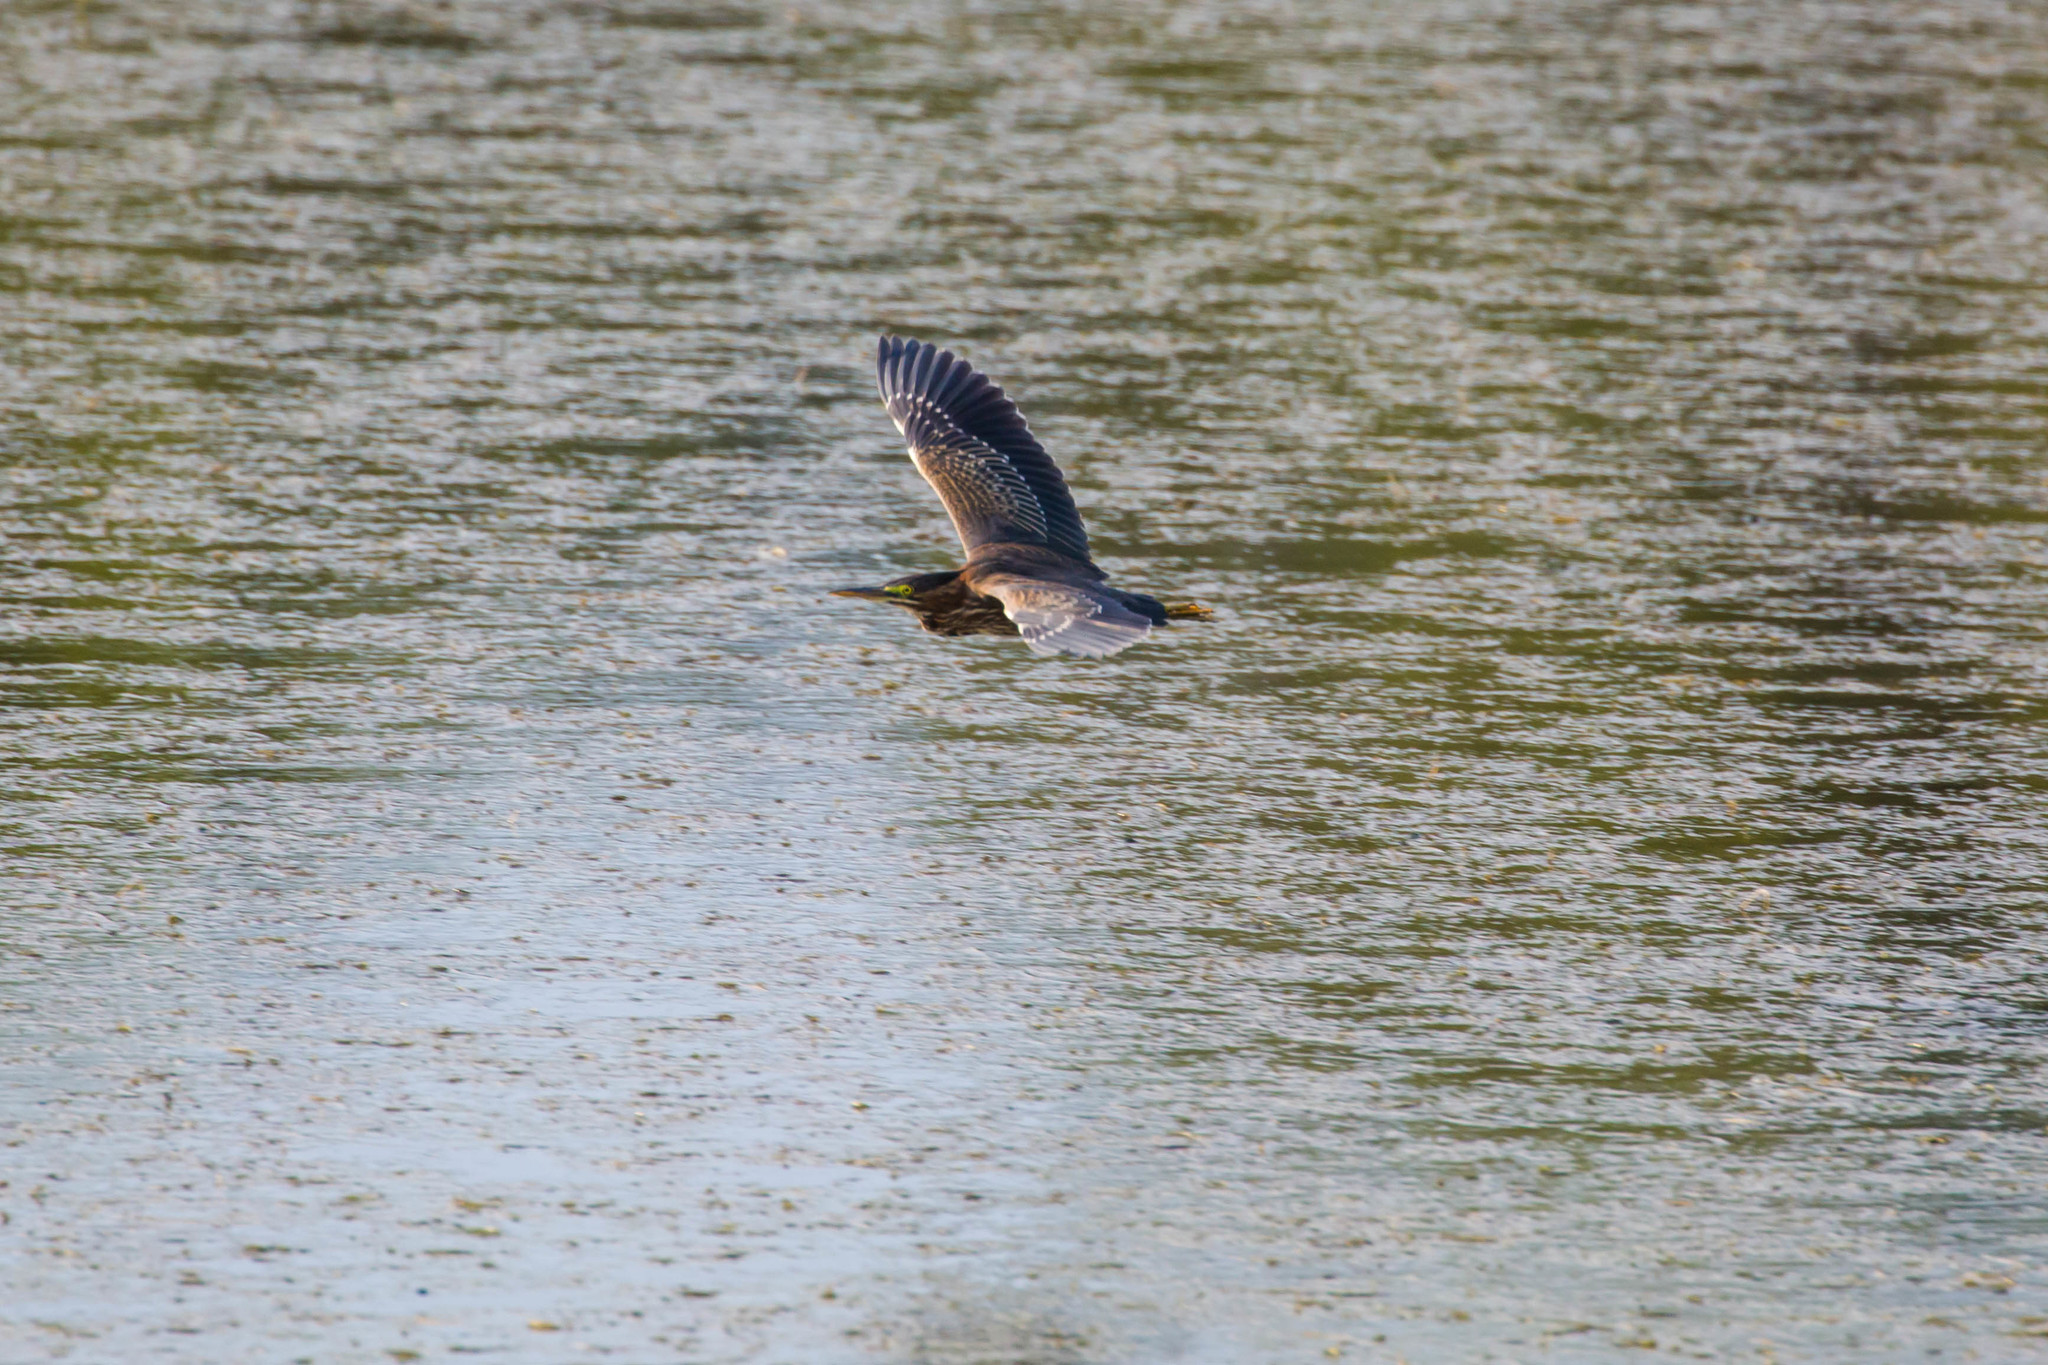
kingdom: Animalia
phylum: Chordata
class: Aves
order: Pelecaniformes
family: Ardeidae
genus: Butorides
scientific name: Butorides virescens
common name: Green heron
